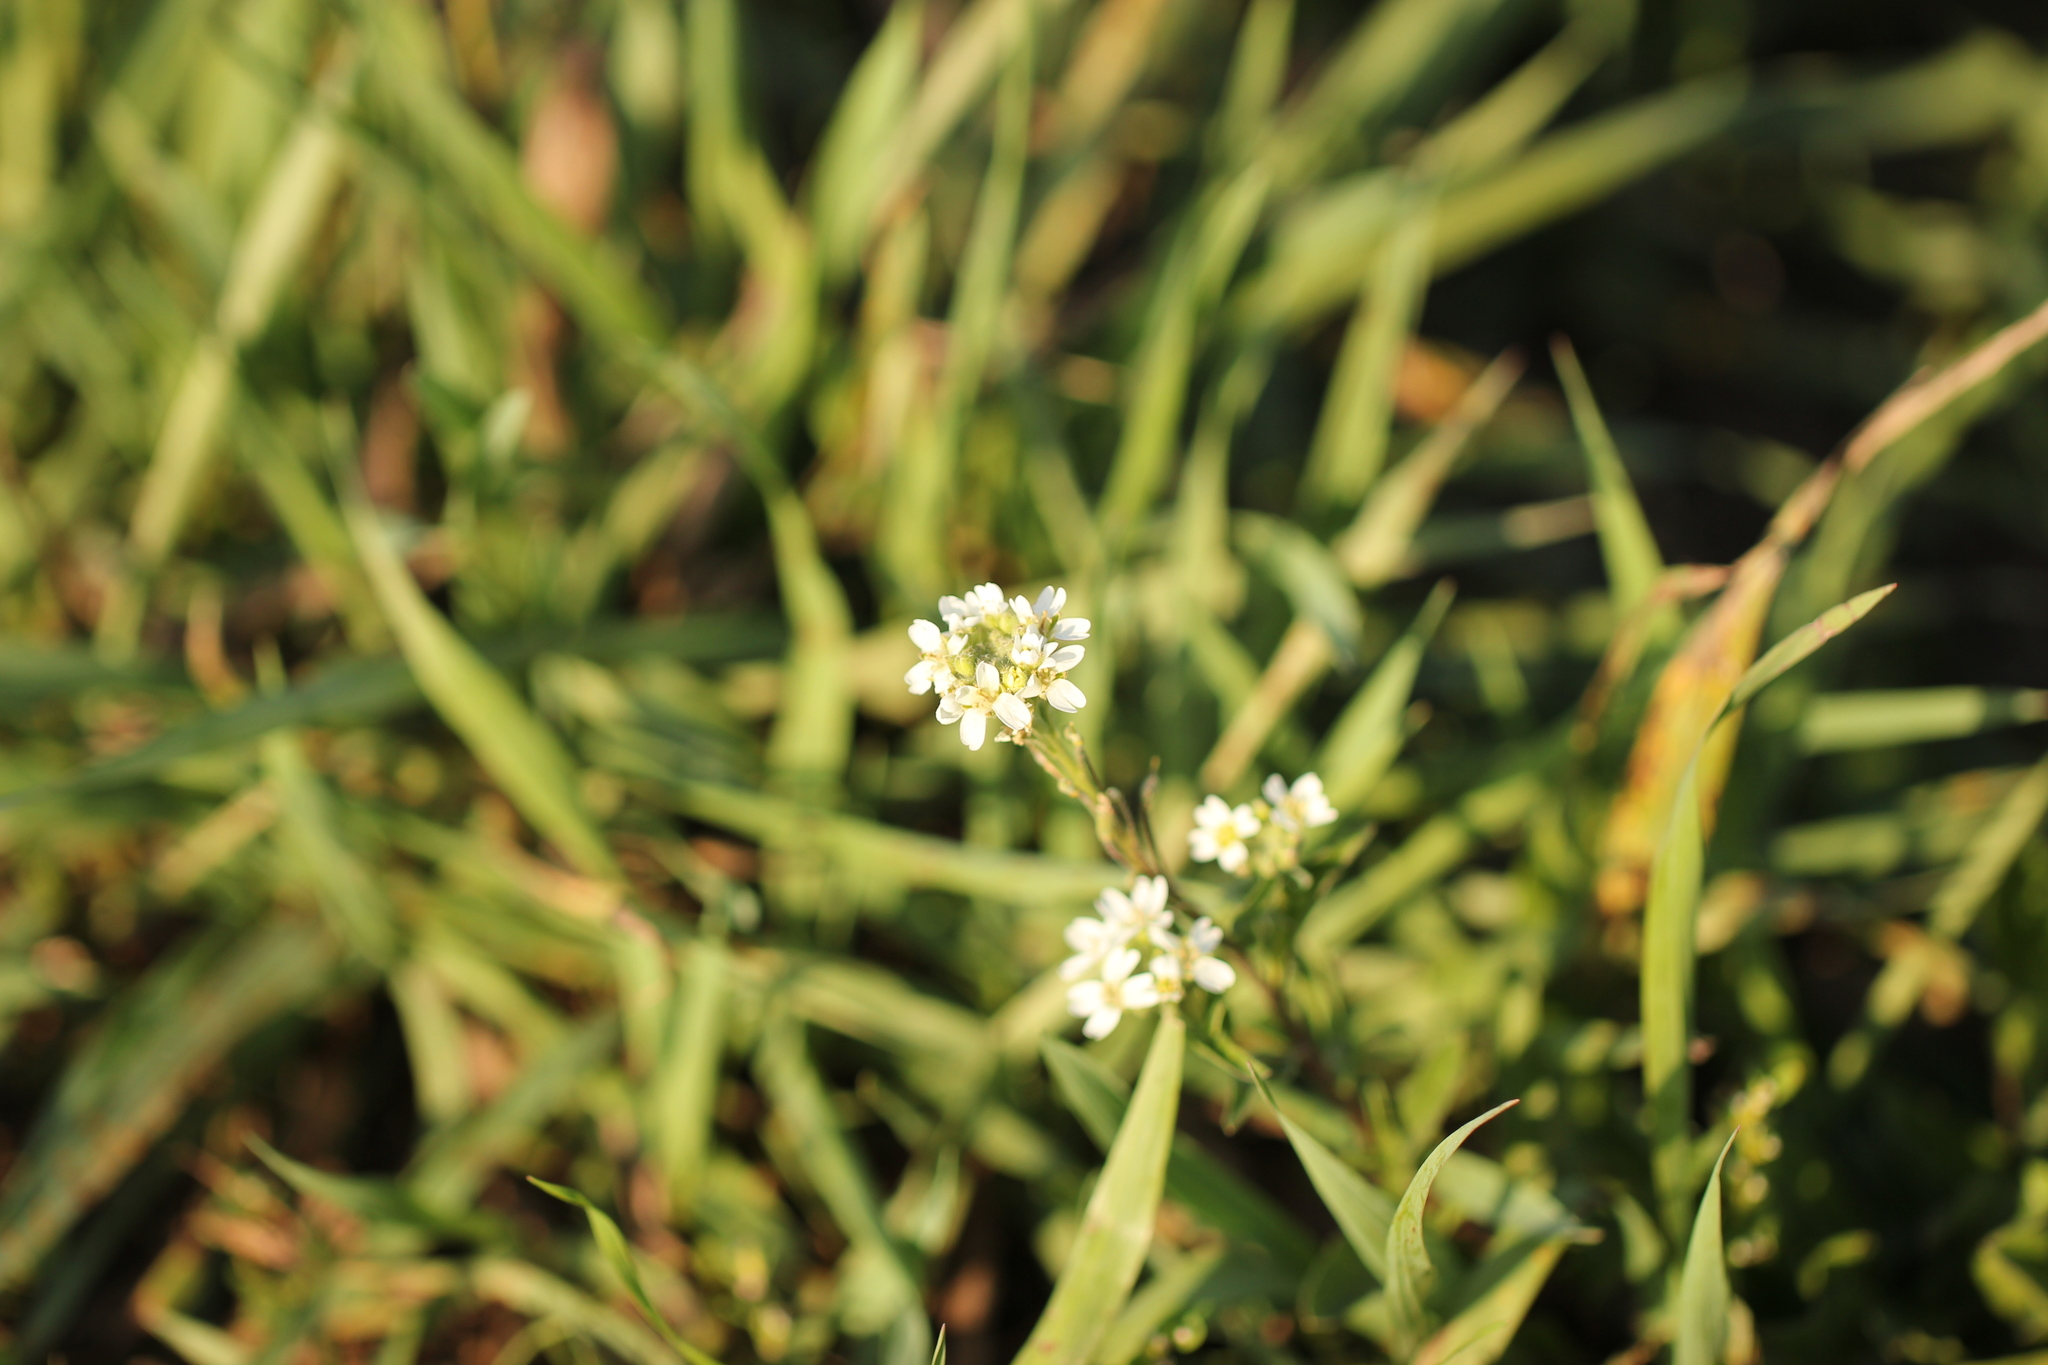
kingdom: Plantae
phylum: Tracheophyta
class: Magnoliopsida
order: Brassicales
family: Brassicaceae
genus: Berteroa
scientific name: Berteroa incana
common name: Hoary alison
